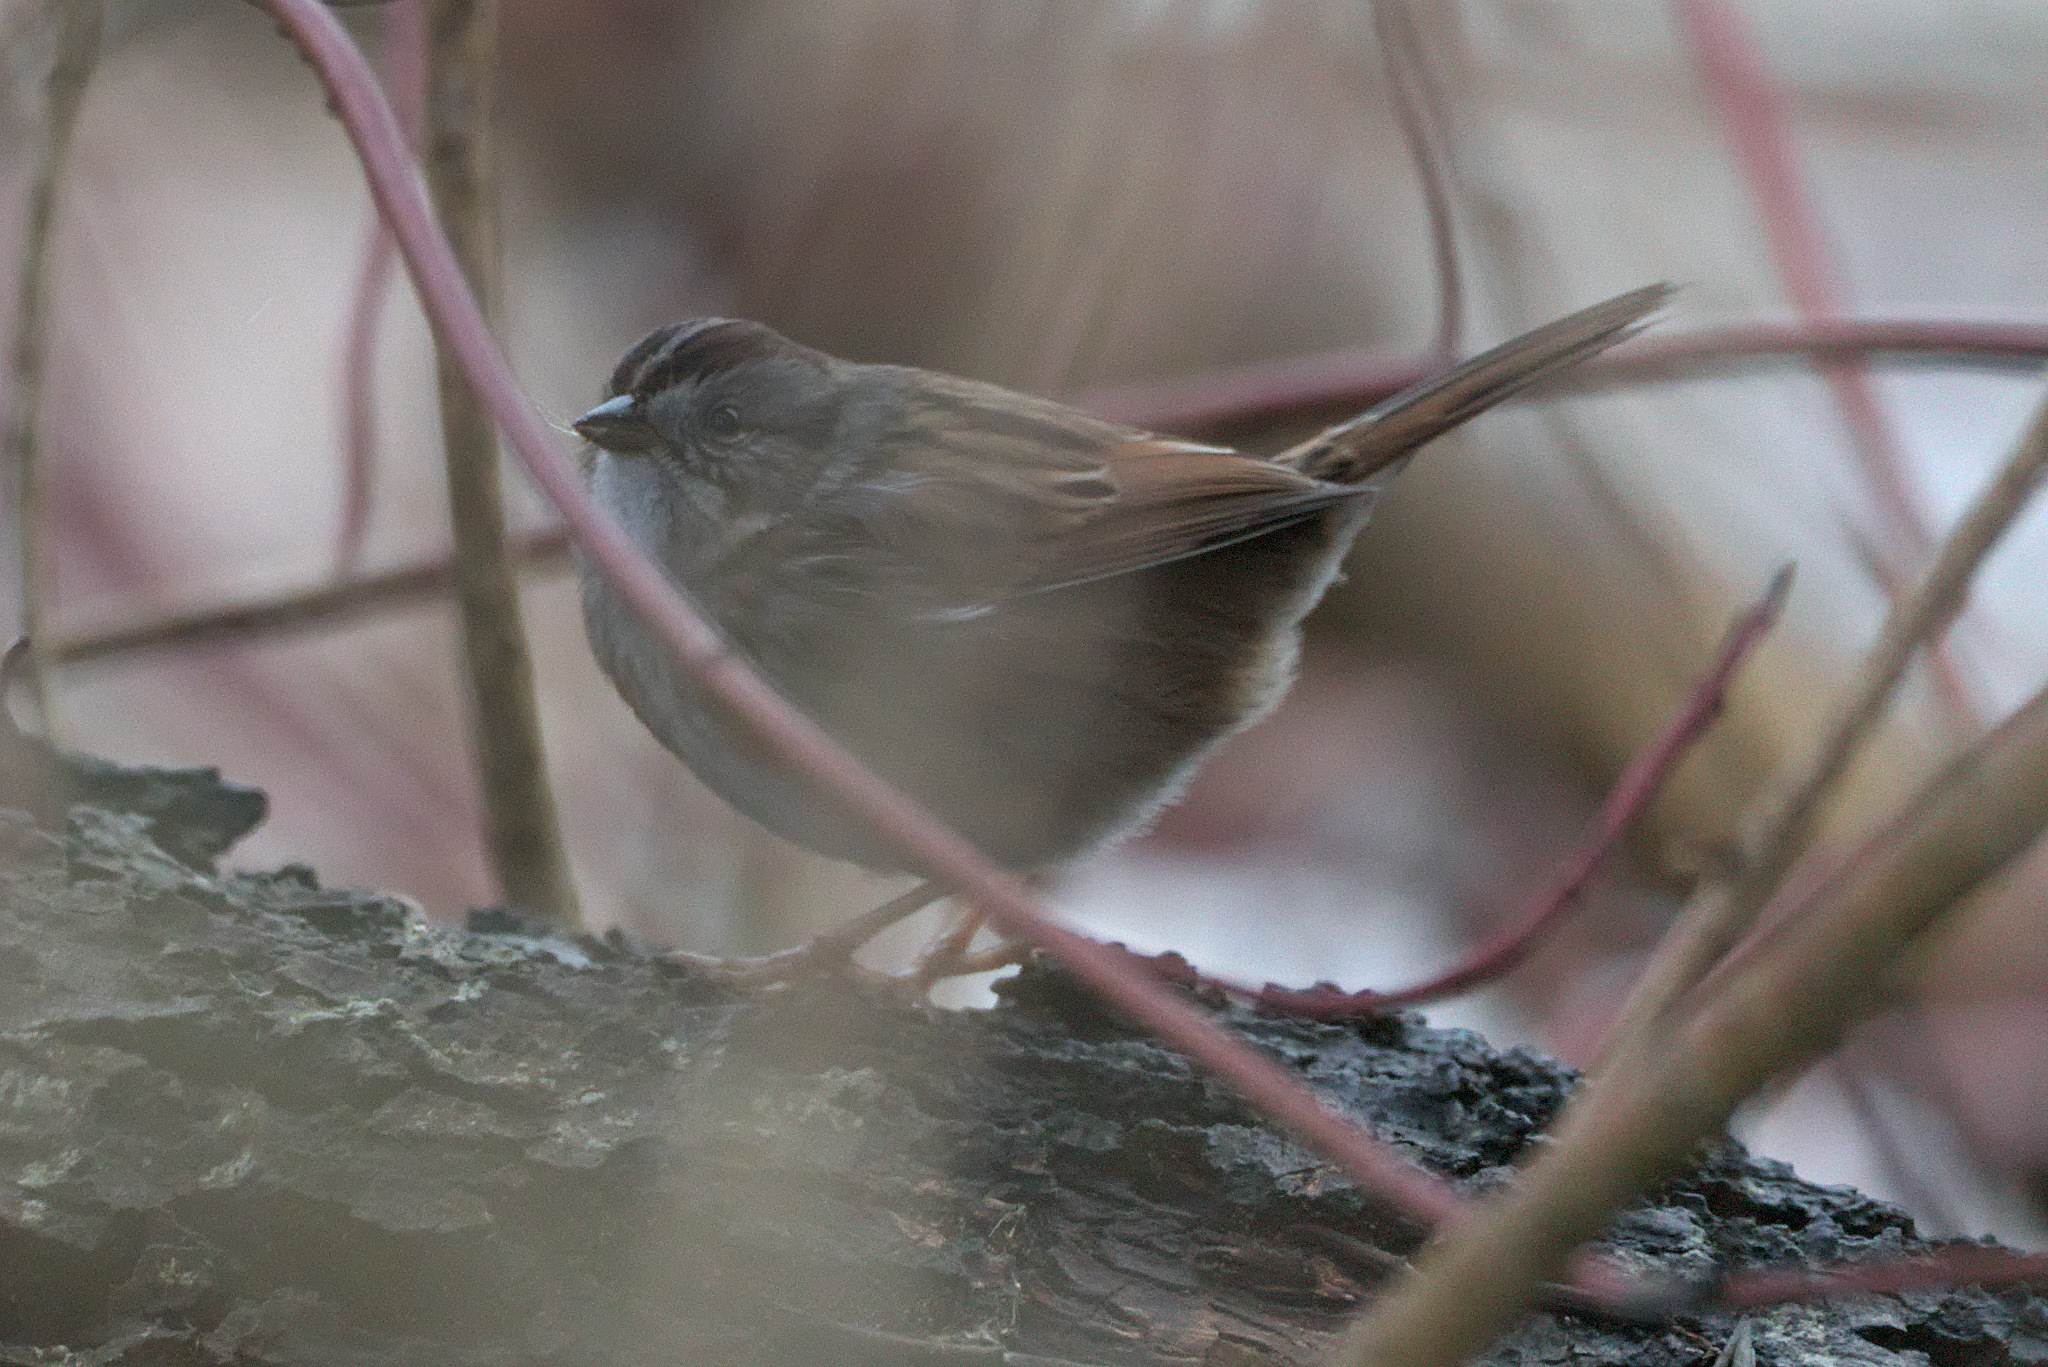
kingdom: Animalia
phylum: Chordata
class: Aves
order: Passeriformes
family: Passerellidae
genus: Melospiza
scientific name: Melospiza georgiana
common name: Swamp sparrow
